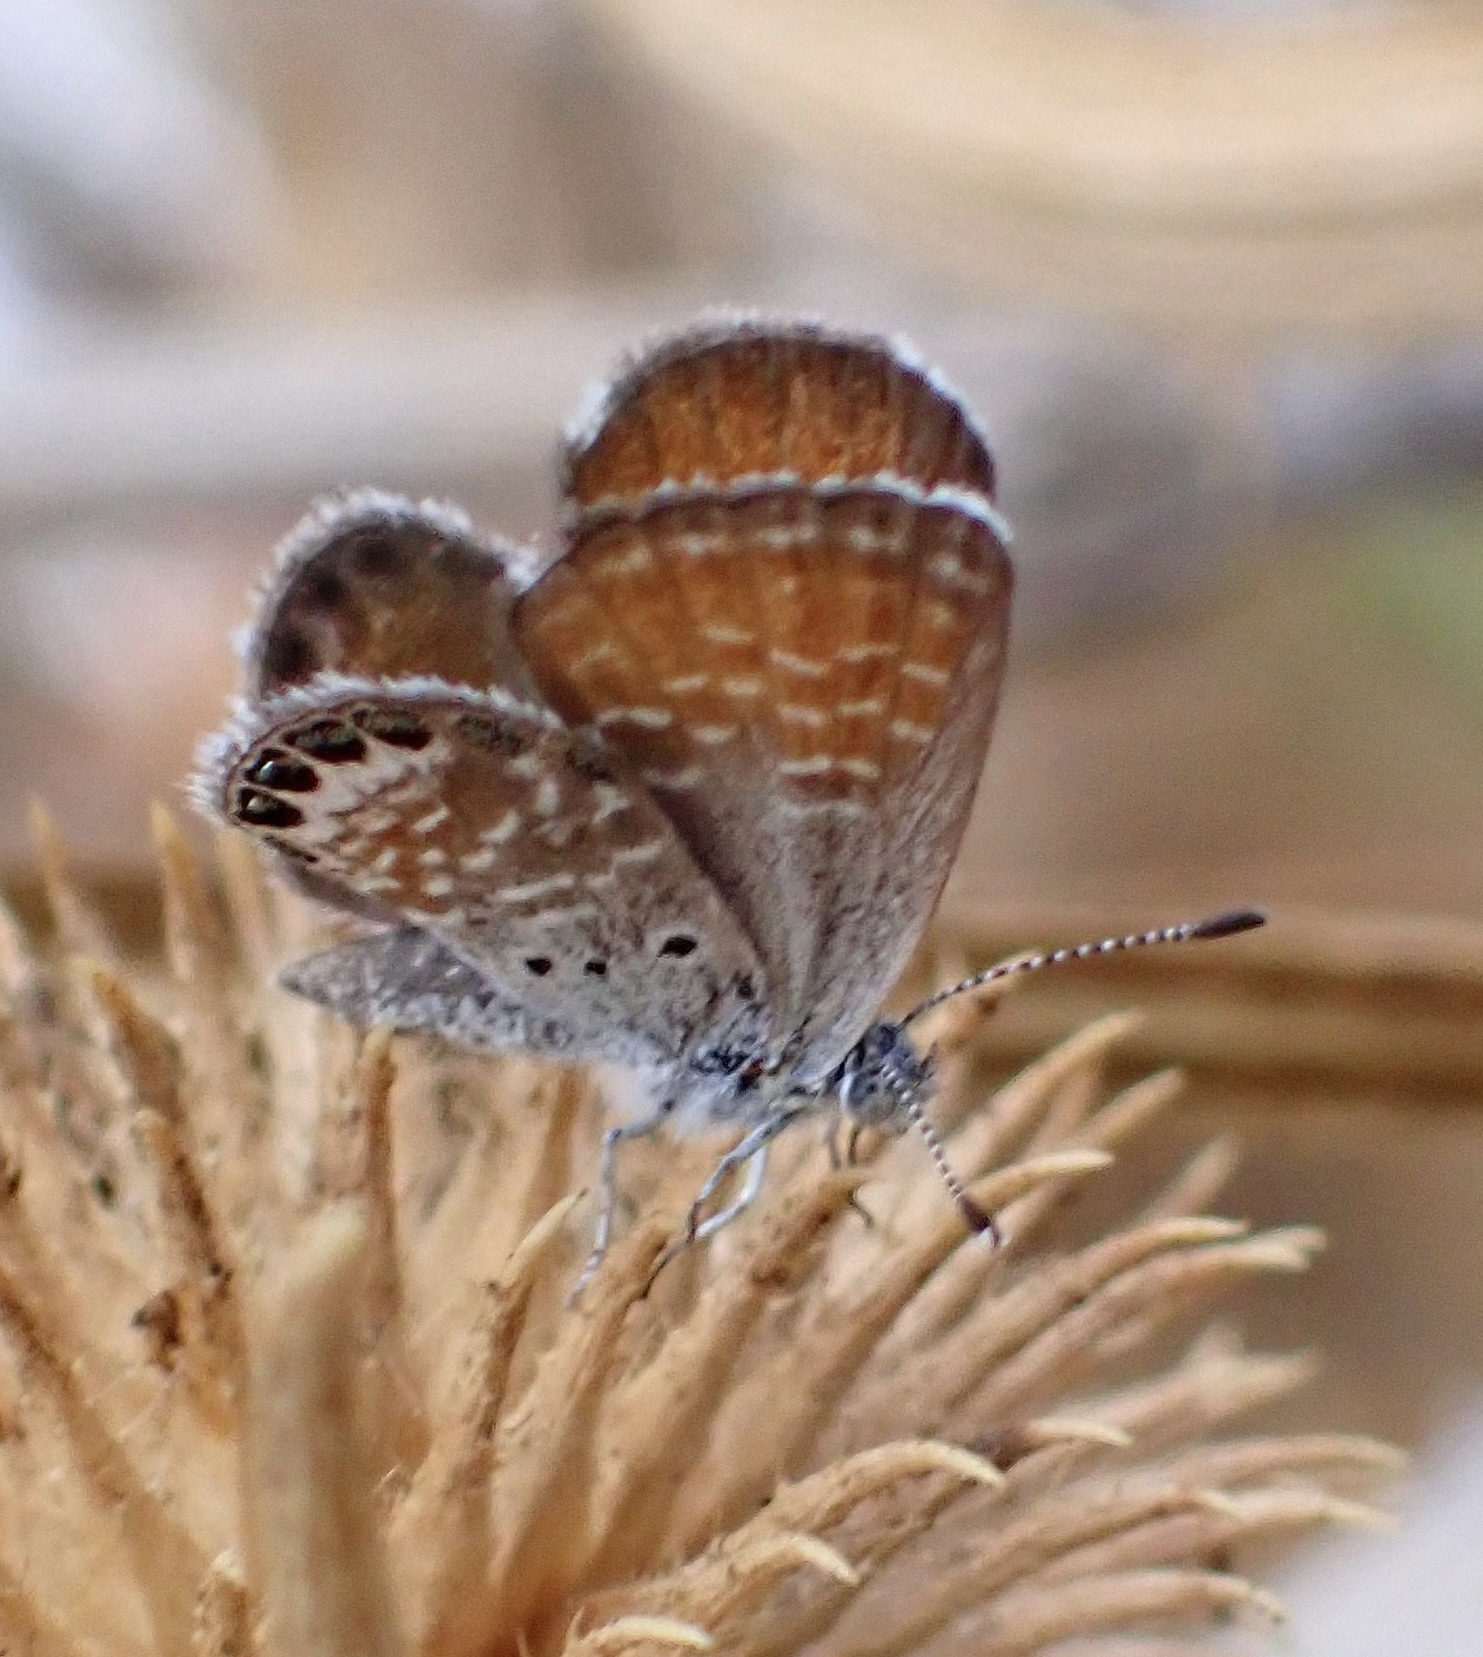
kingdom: Animalia
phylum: Arthropoda
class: Insecta
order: Lepidoptera
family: Lycaenidae
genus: Brephidium
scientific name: Brephidium exilis
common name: Pygmy blue
